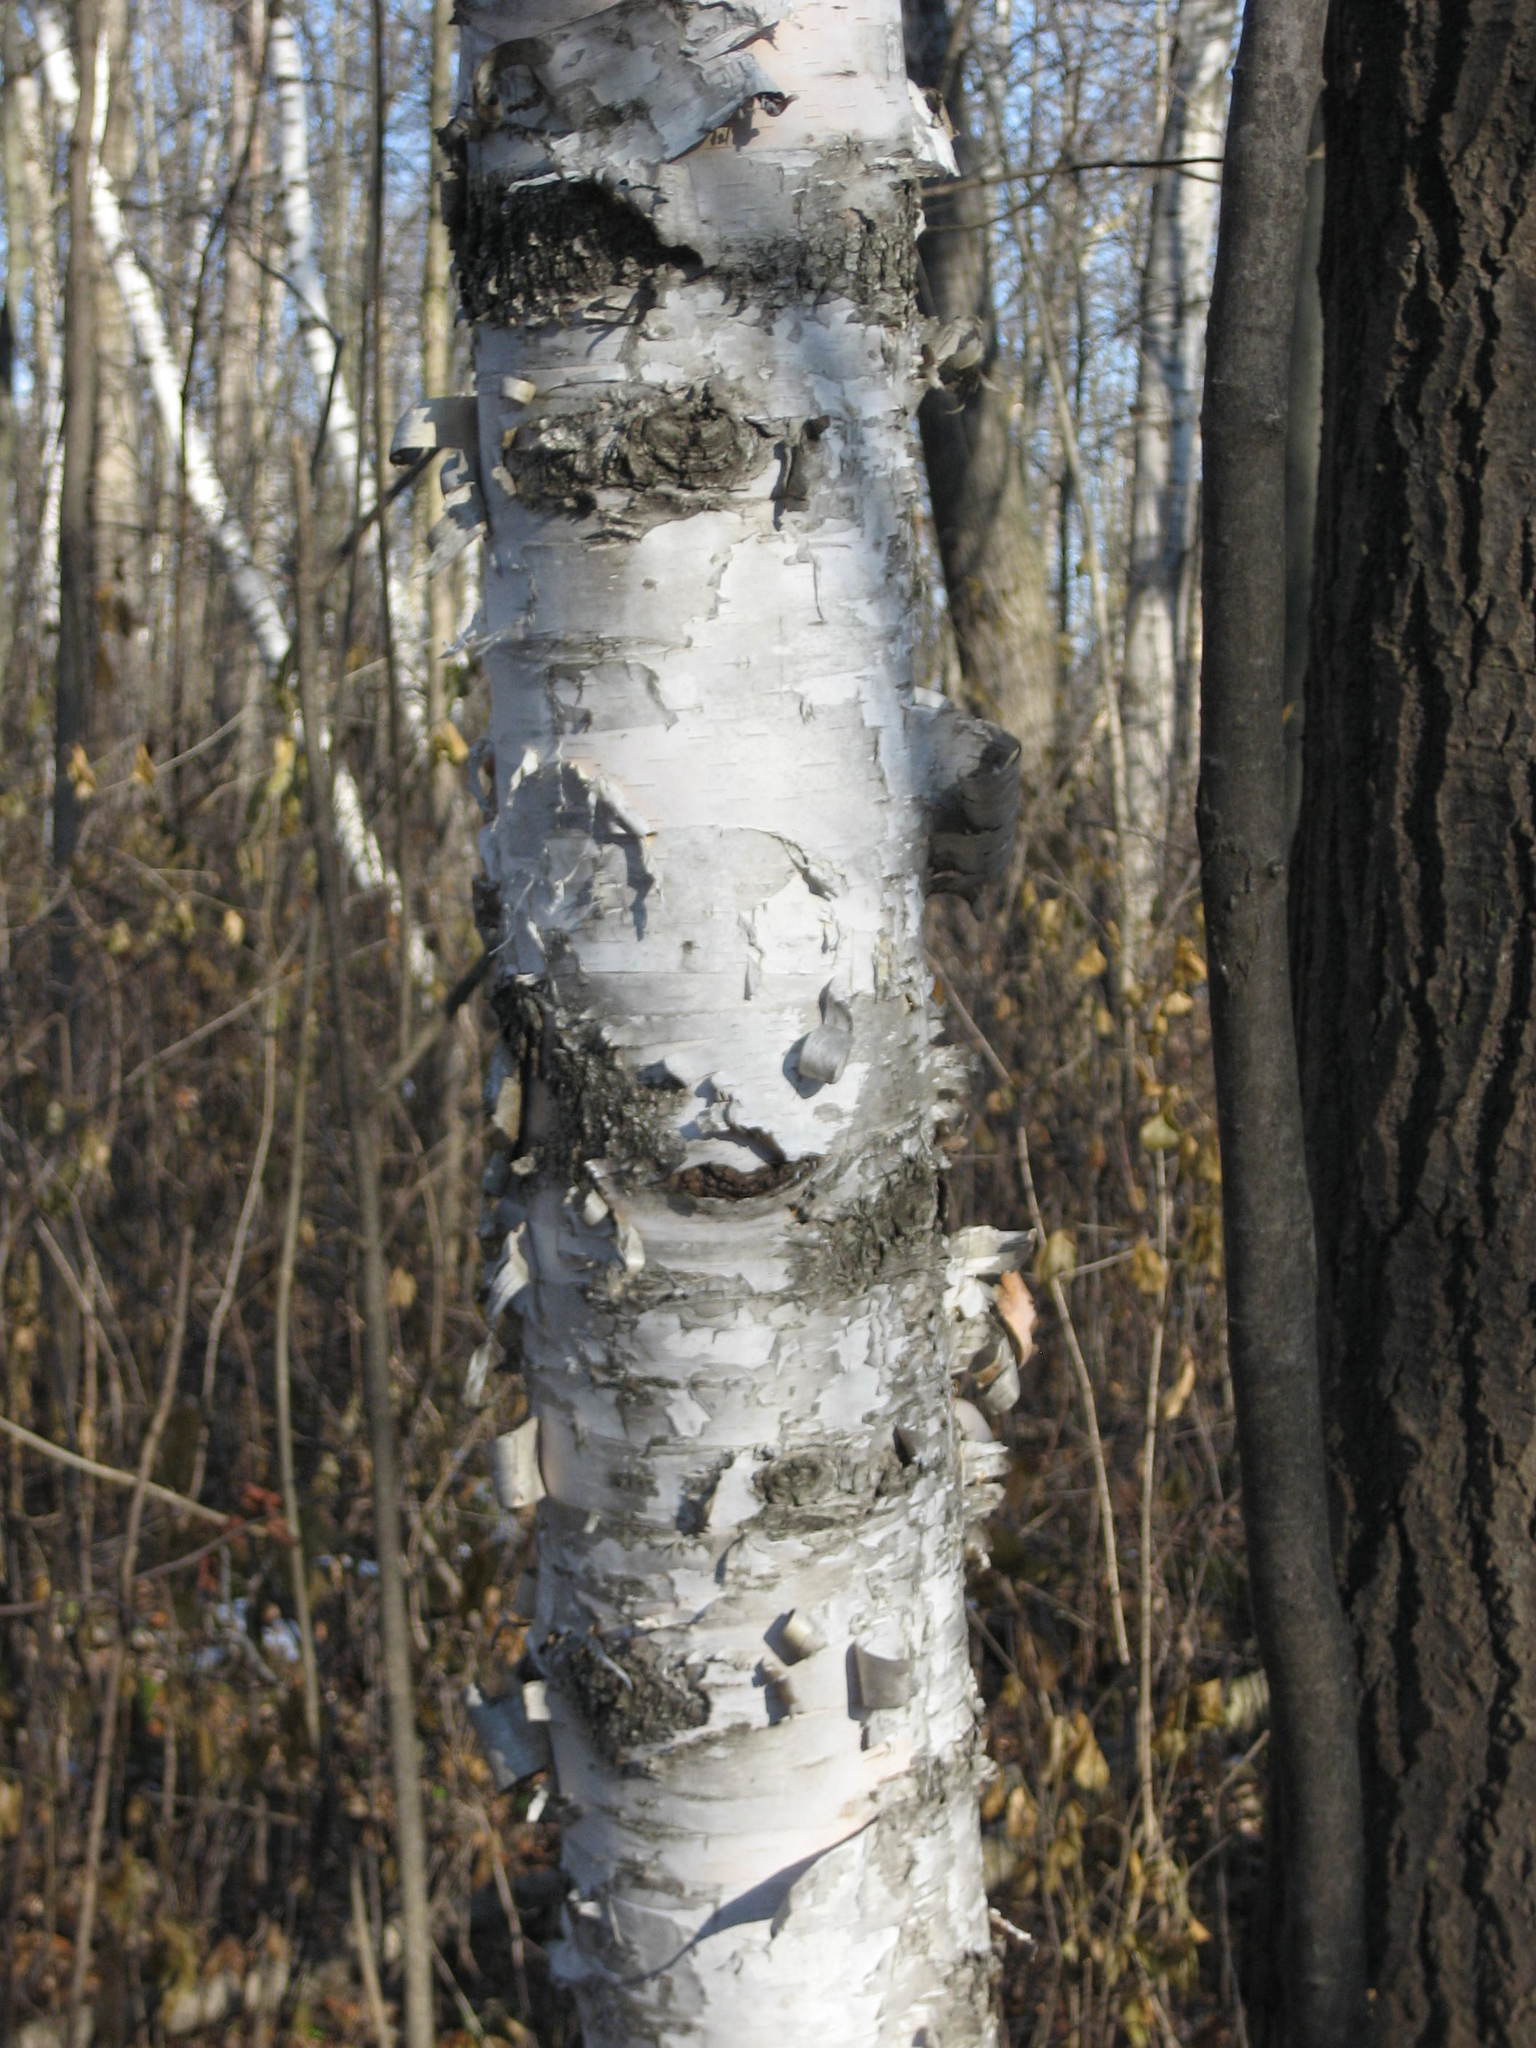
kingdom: Plantae
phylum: Tracheophyta
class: Magnoliopsida
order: Fagales
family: Betulaceae
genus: Betula
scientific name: Betula papyrifera
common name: Paper birch
